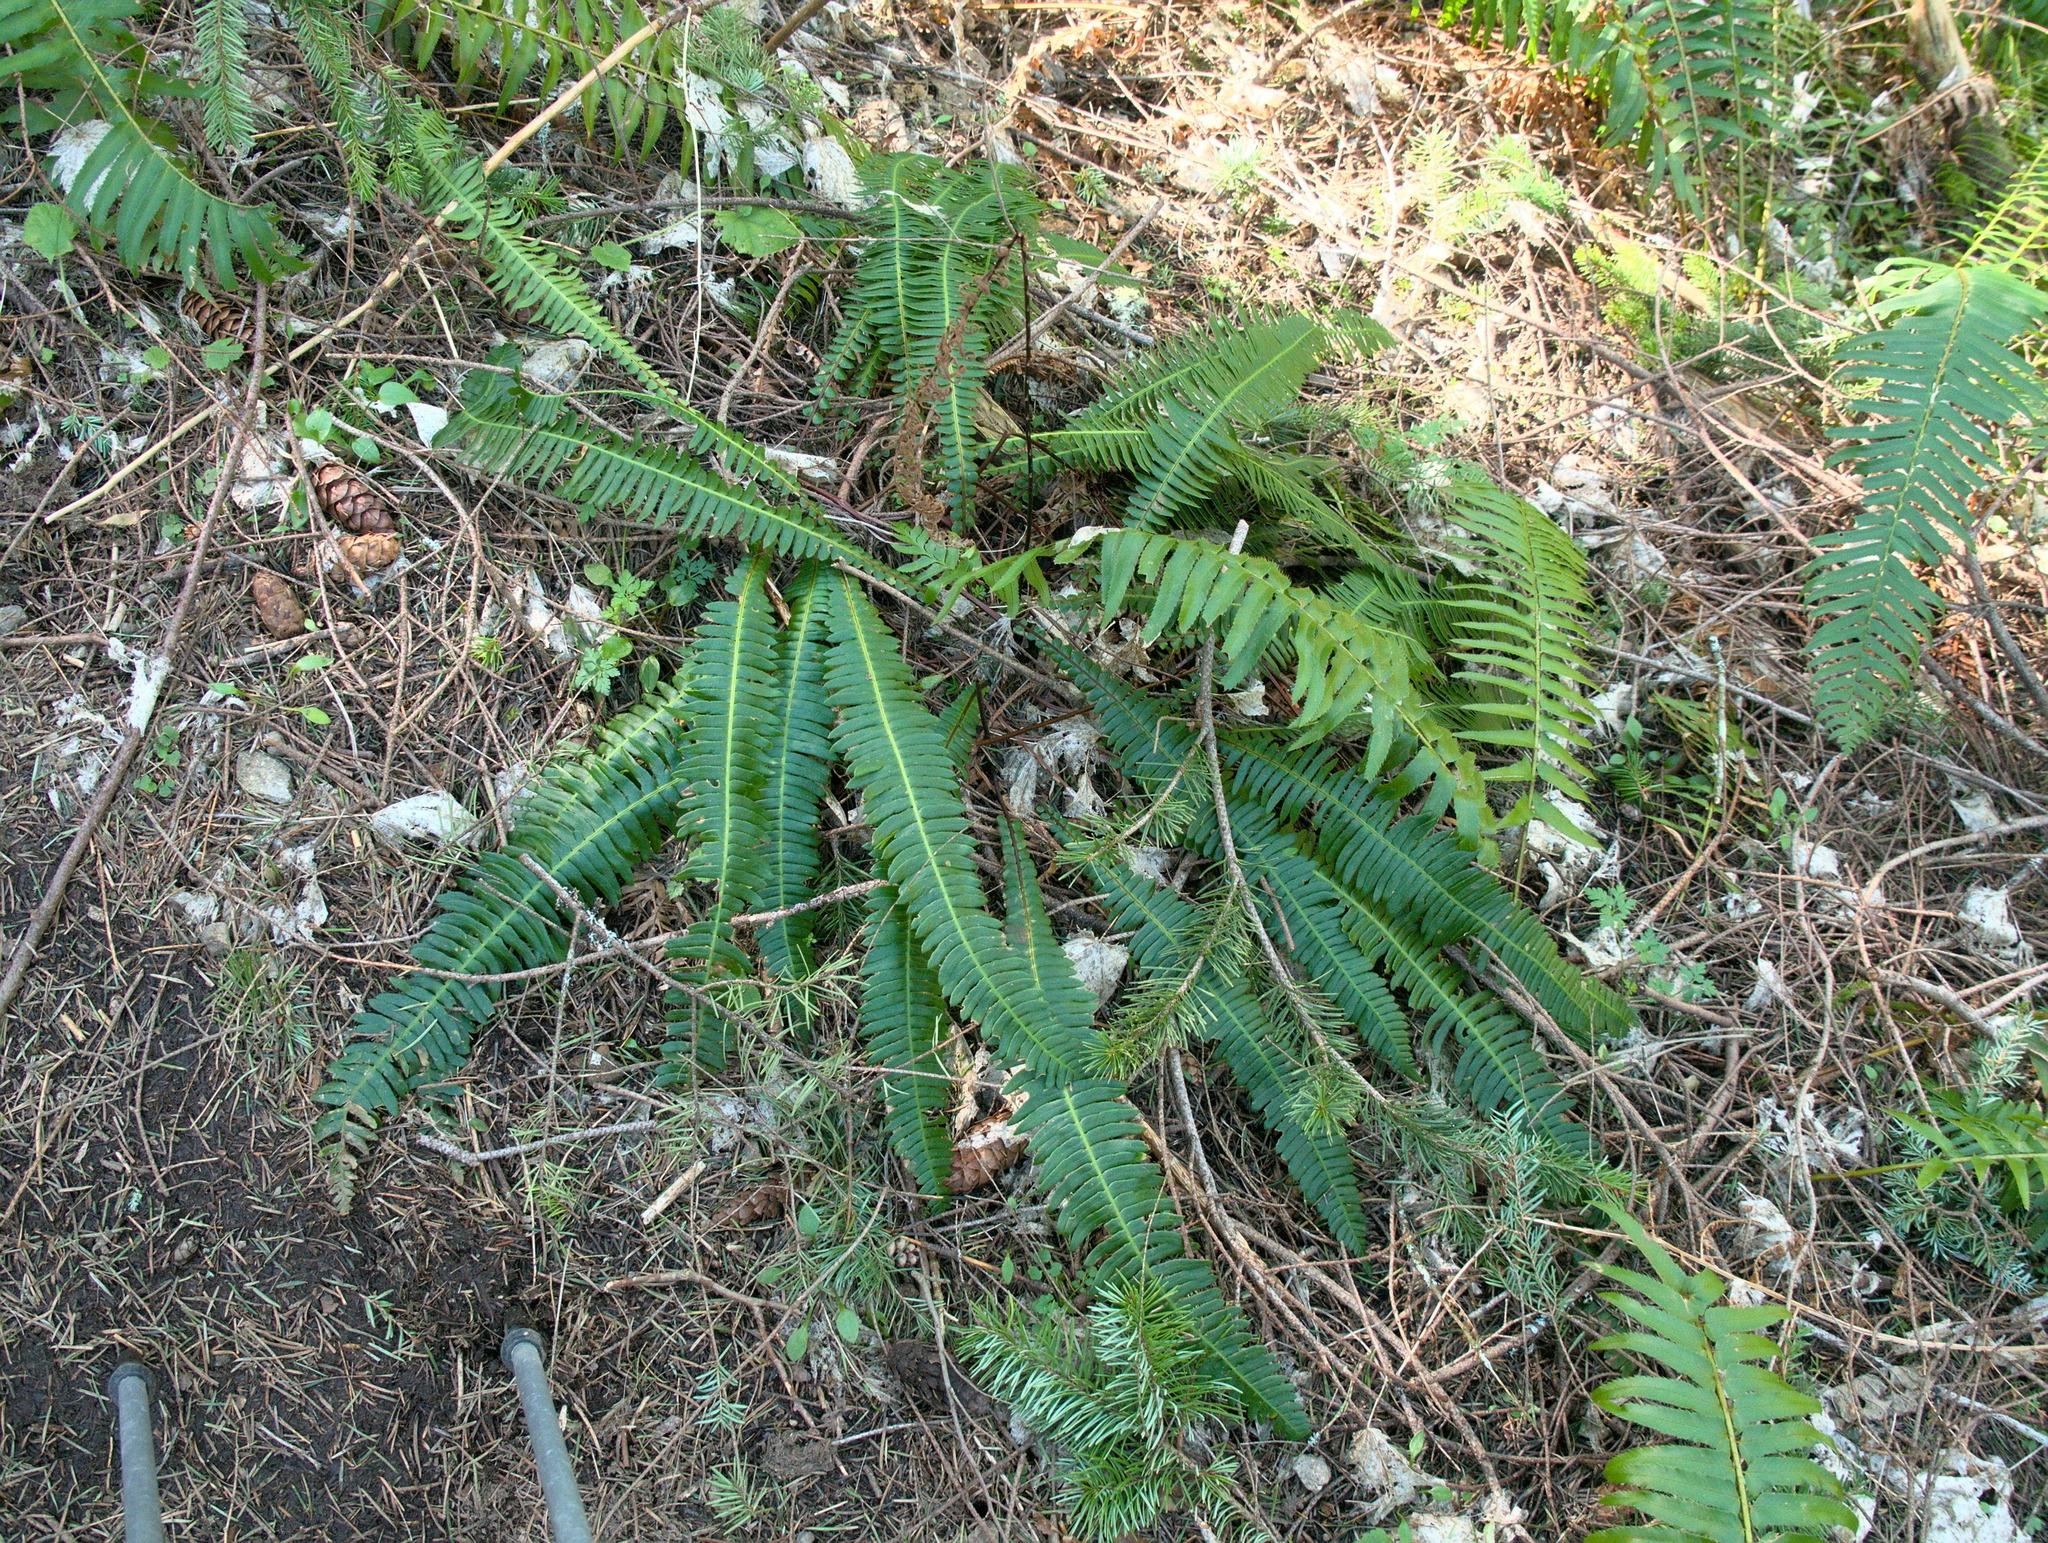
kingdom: Plantae
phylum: Tracheophyta
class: Polypodiopsida
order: Polypodiales
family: Blechnaceae
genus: Struthiopteris
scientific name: Struthiopteris spicant
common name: Deer fern
